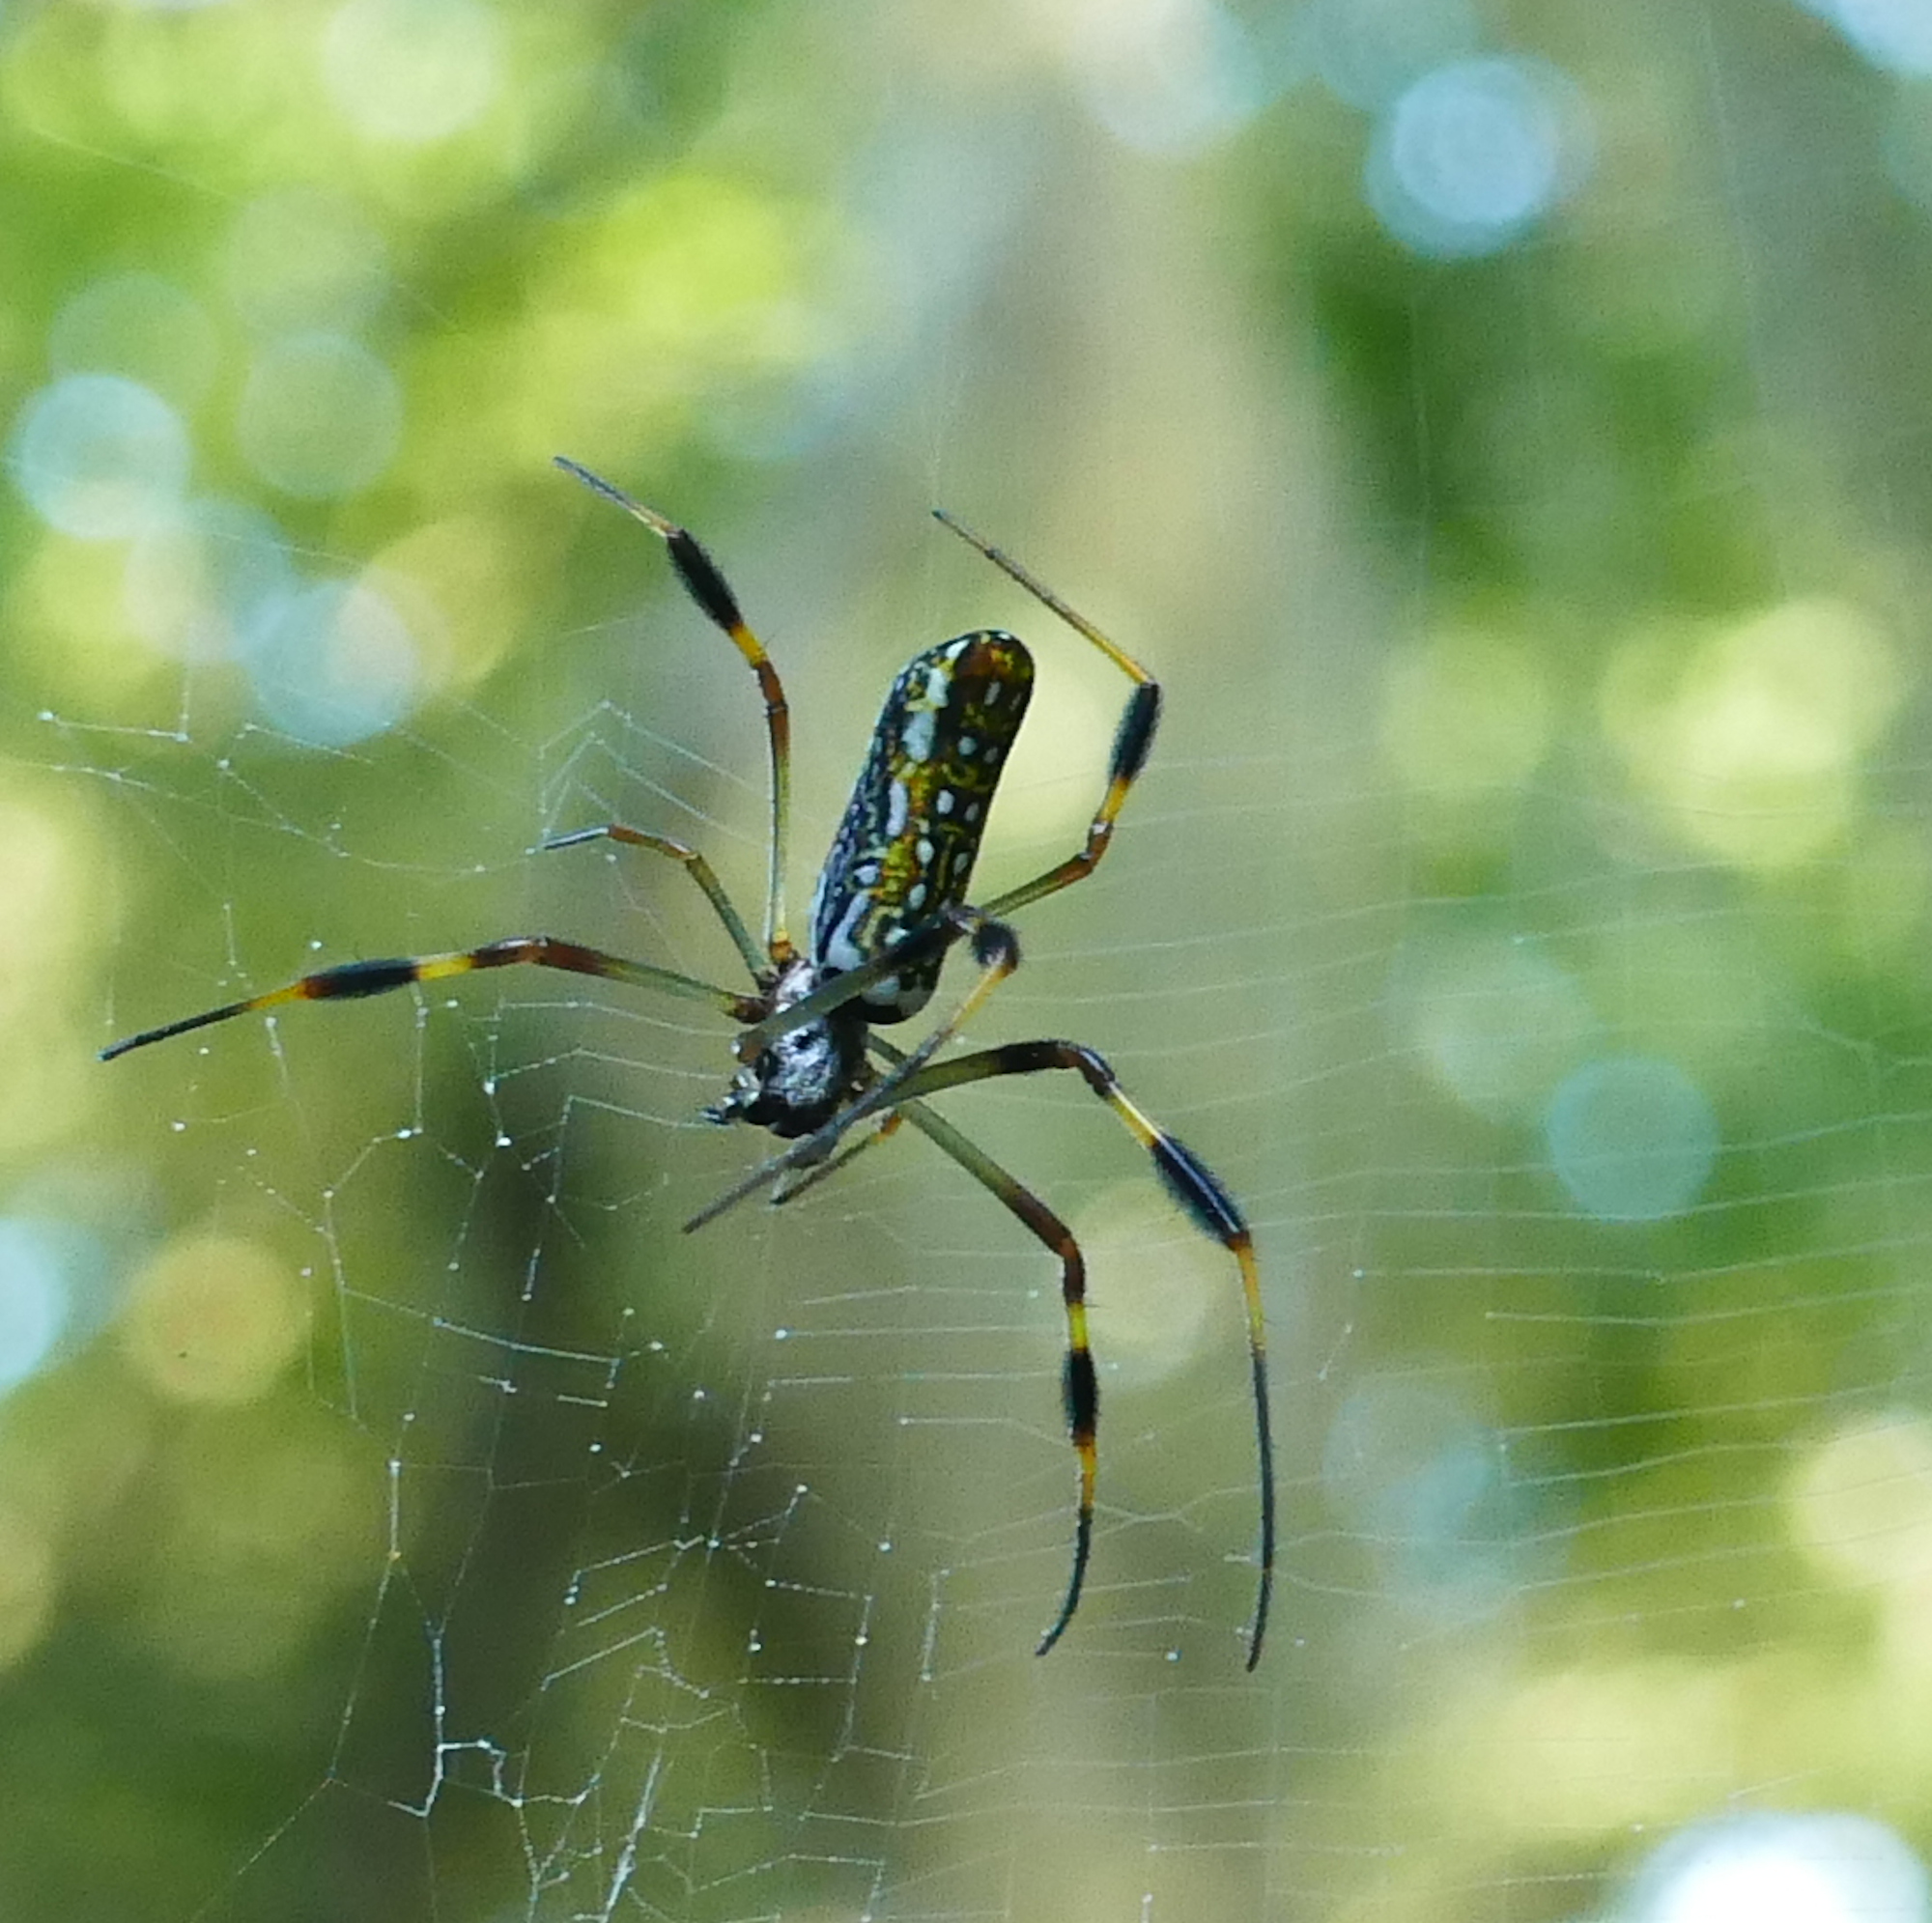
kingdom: Animalia
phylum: Arthropoda
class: Arachnida
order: Araneae
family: Araneidae
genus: Trichonephila
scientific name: Trichonephila clavipes
